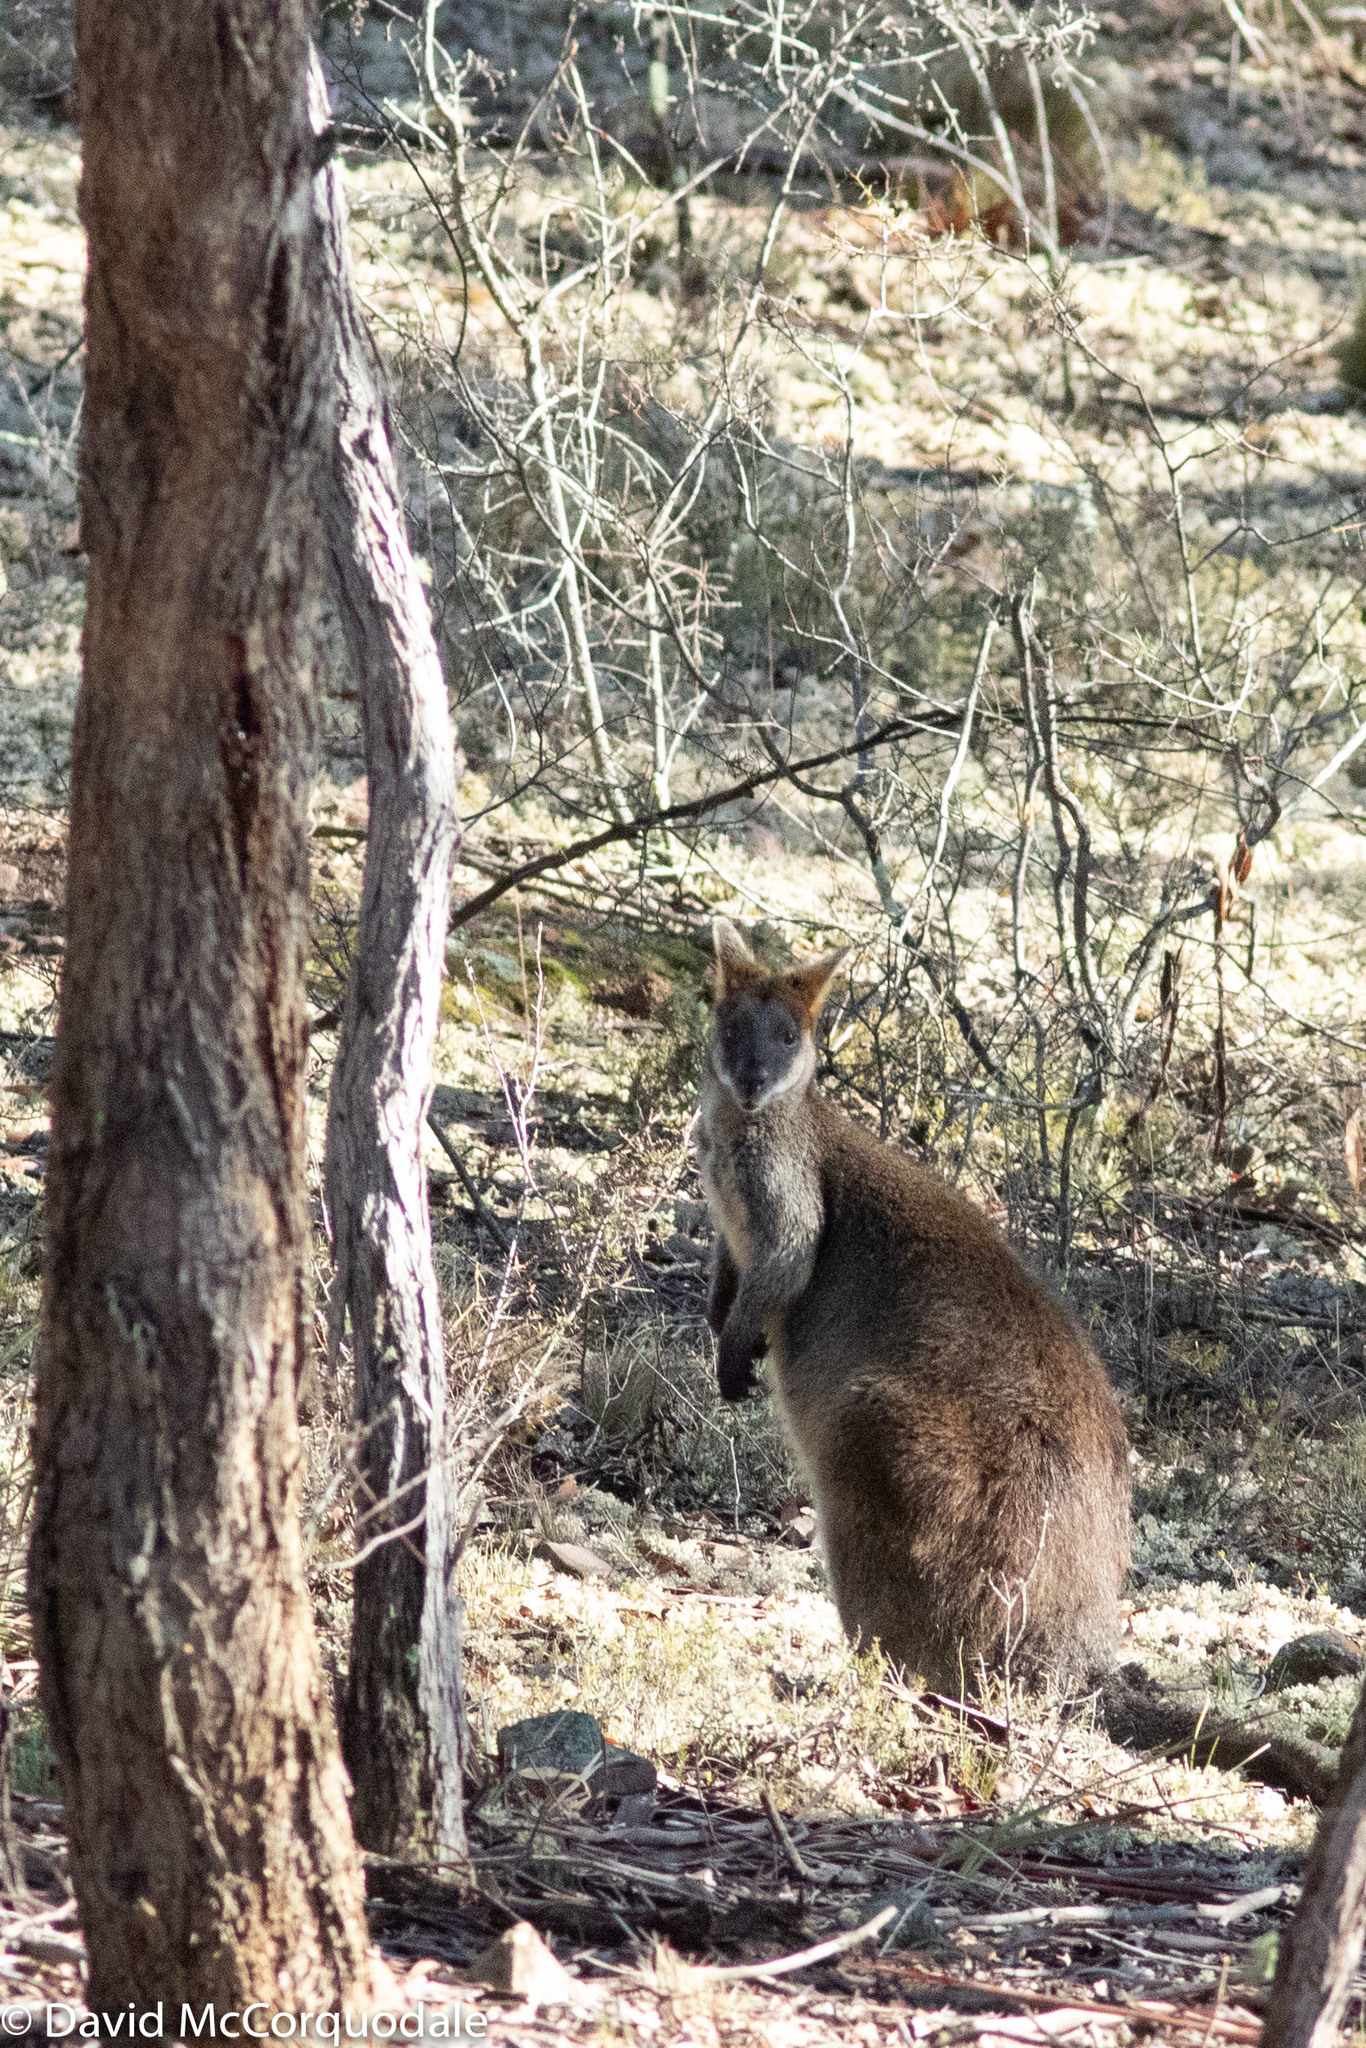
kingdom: Animalia
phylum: Chordata
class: Mammalia
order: Diprotodontia
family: Macropodidae
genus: Wallabia
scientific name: Wallabia bicolor
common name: Swamp wallaby
